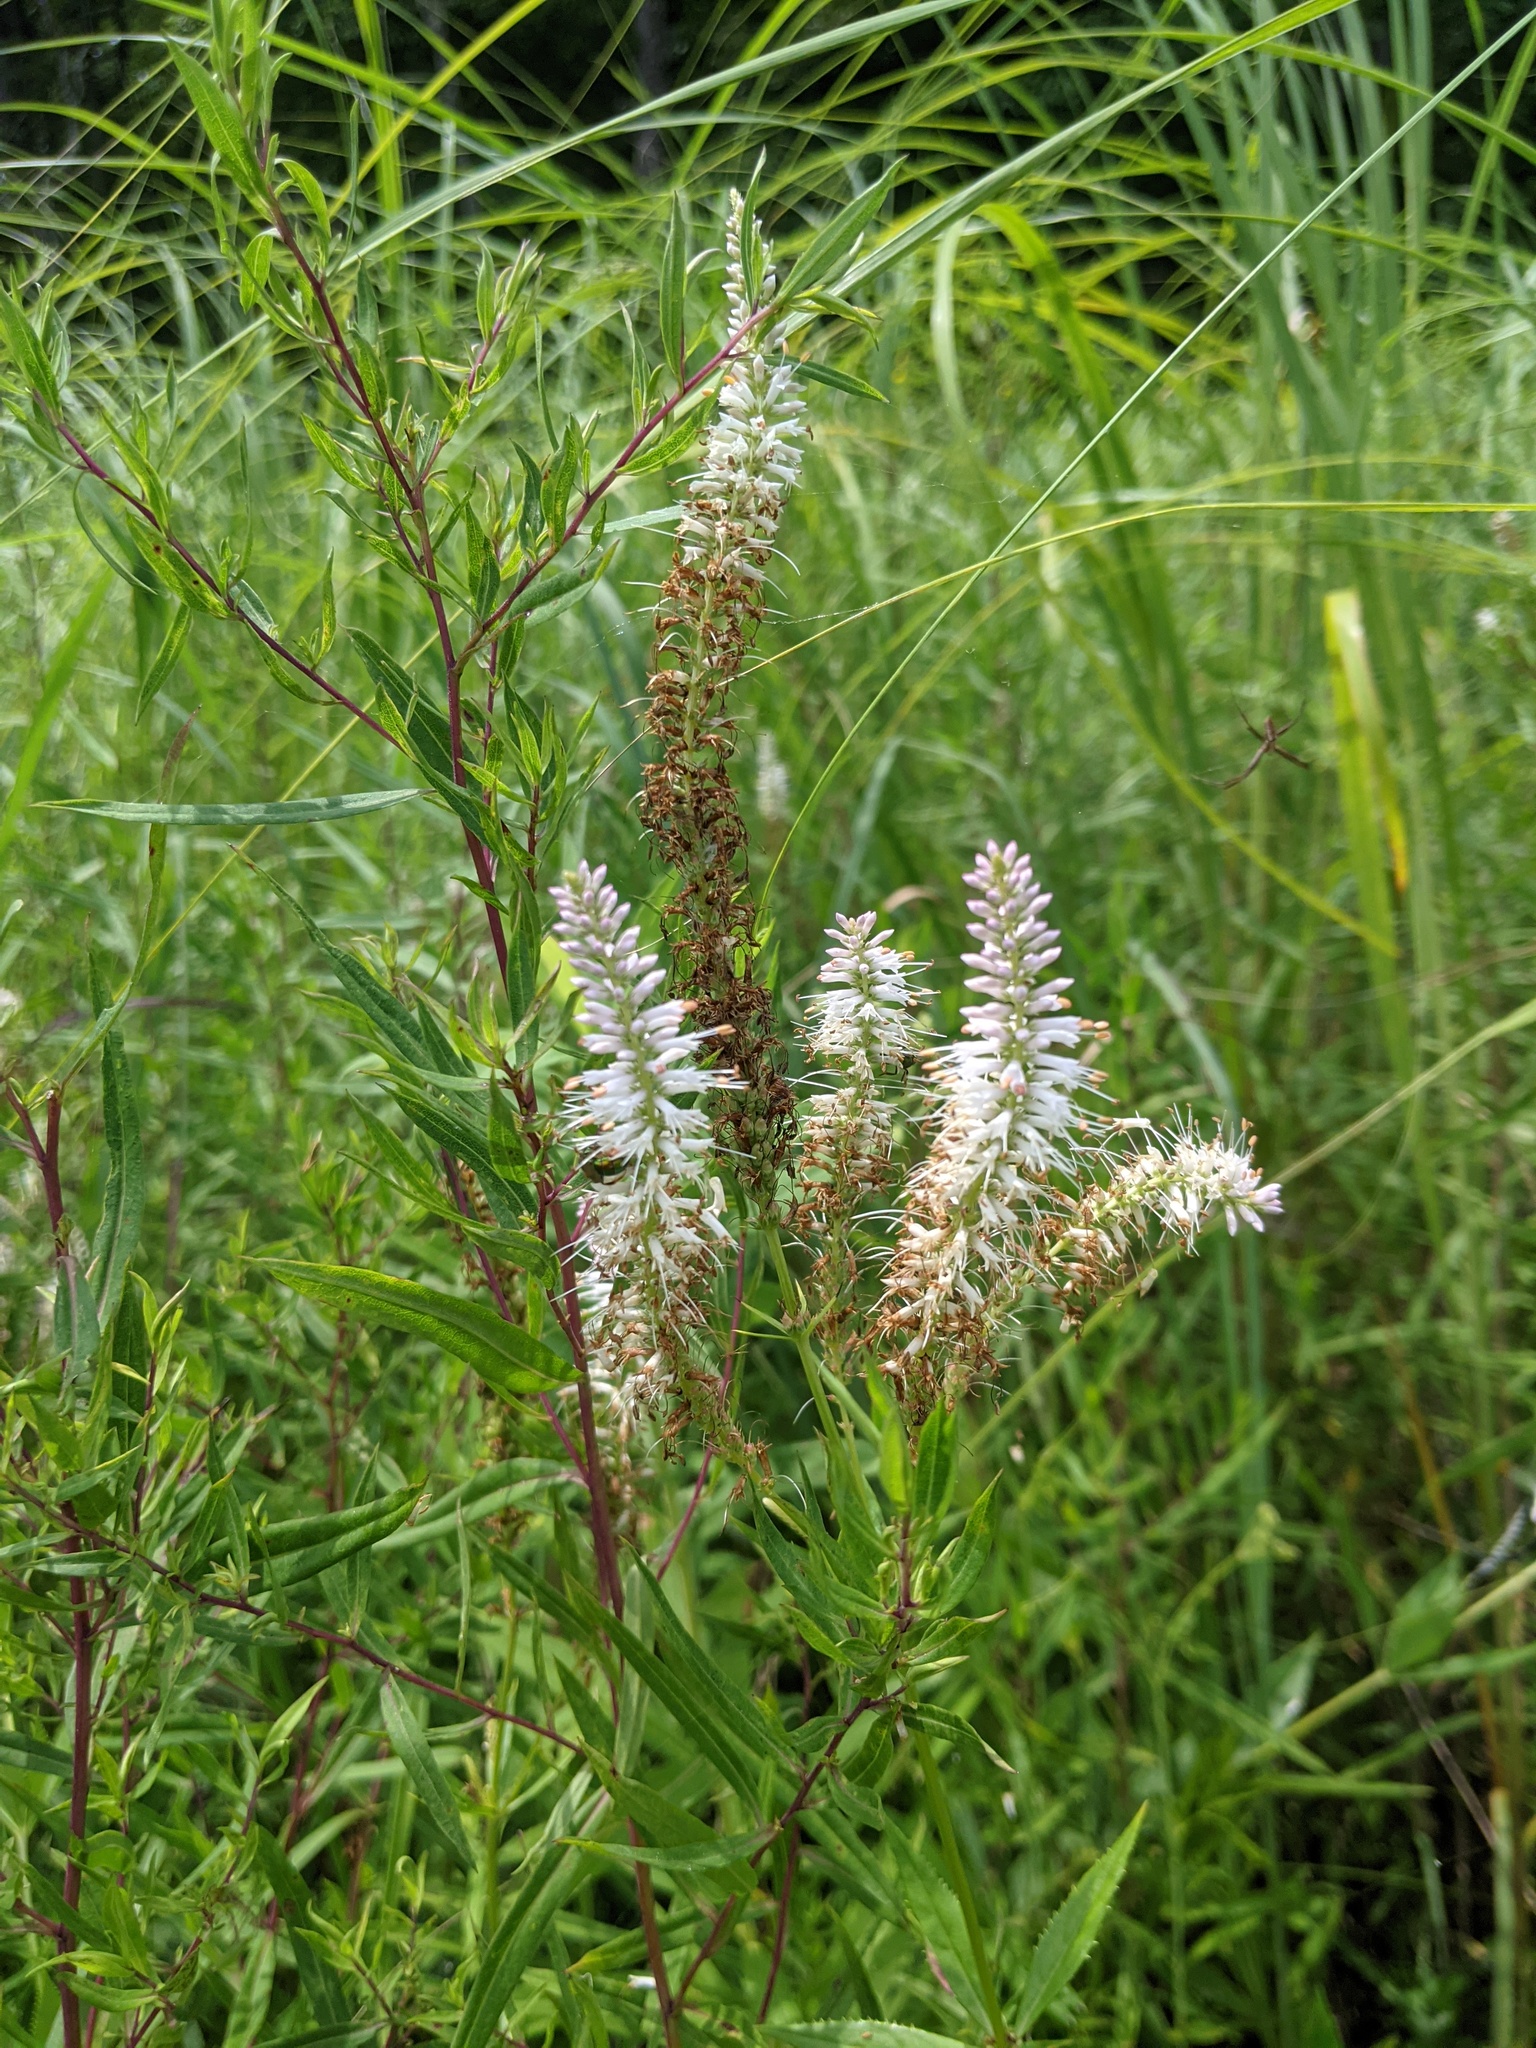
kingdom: Plantae
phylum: Tracheophyta
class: Magnoliopsida
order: Lamiales
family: Plantaginaceae
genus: Veronicastrum
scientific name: Veronicastrum virginicum
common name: Blackroot
